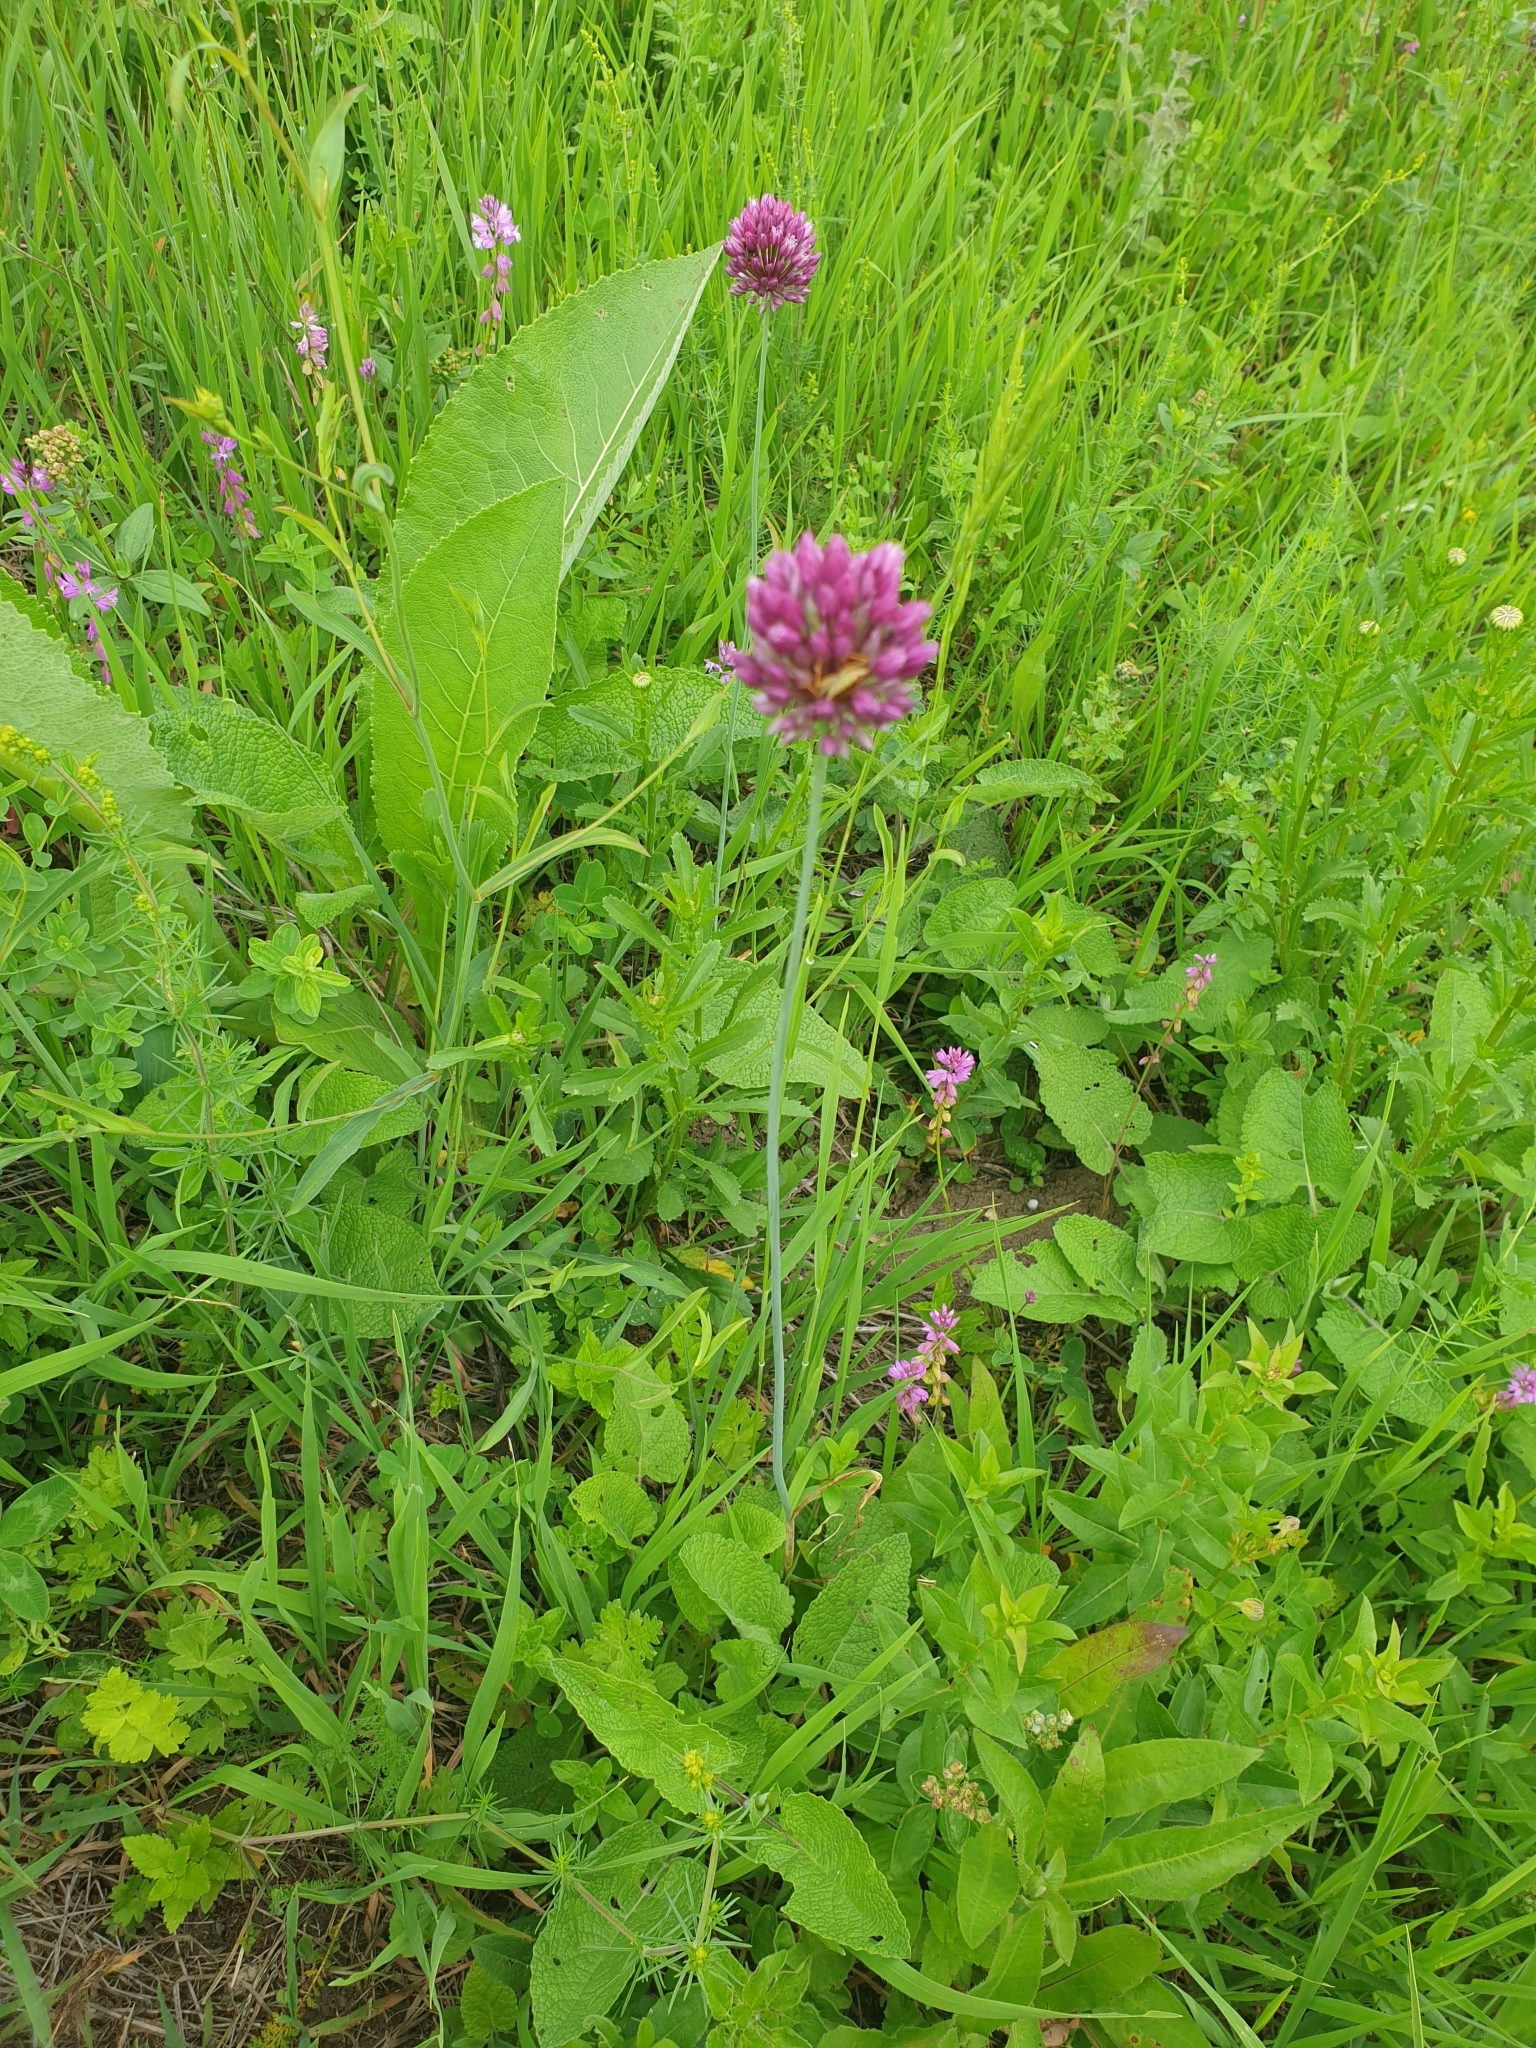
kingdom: Plantae
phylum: Tracheophyta
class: Liliopsida
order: Asparagales
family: Amaryllidaceae
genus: Allium
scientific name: Allium rotundum
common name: Sand leek
